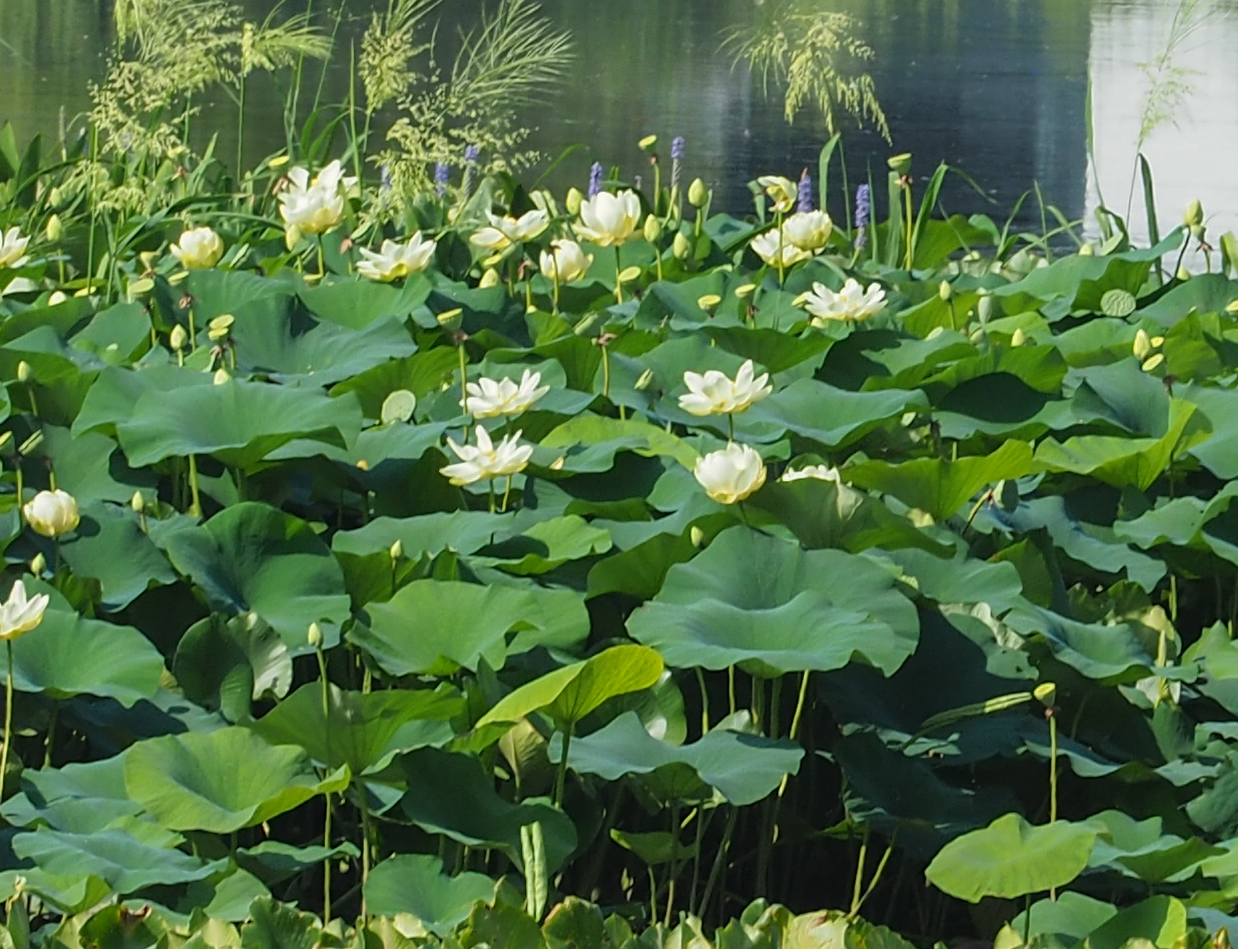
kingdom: Plantae
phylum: Tracheophyta
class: Magnoliopsida
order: Proteales
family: Nelumbonaceae
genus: Nelumbo
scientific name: Nelumbo lutea
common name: American lotus
